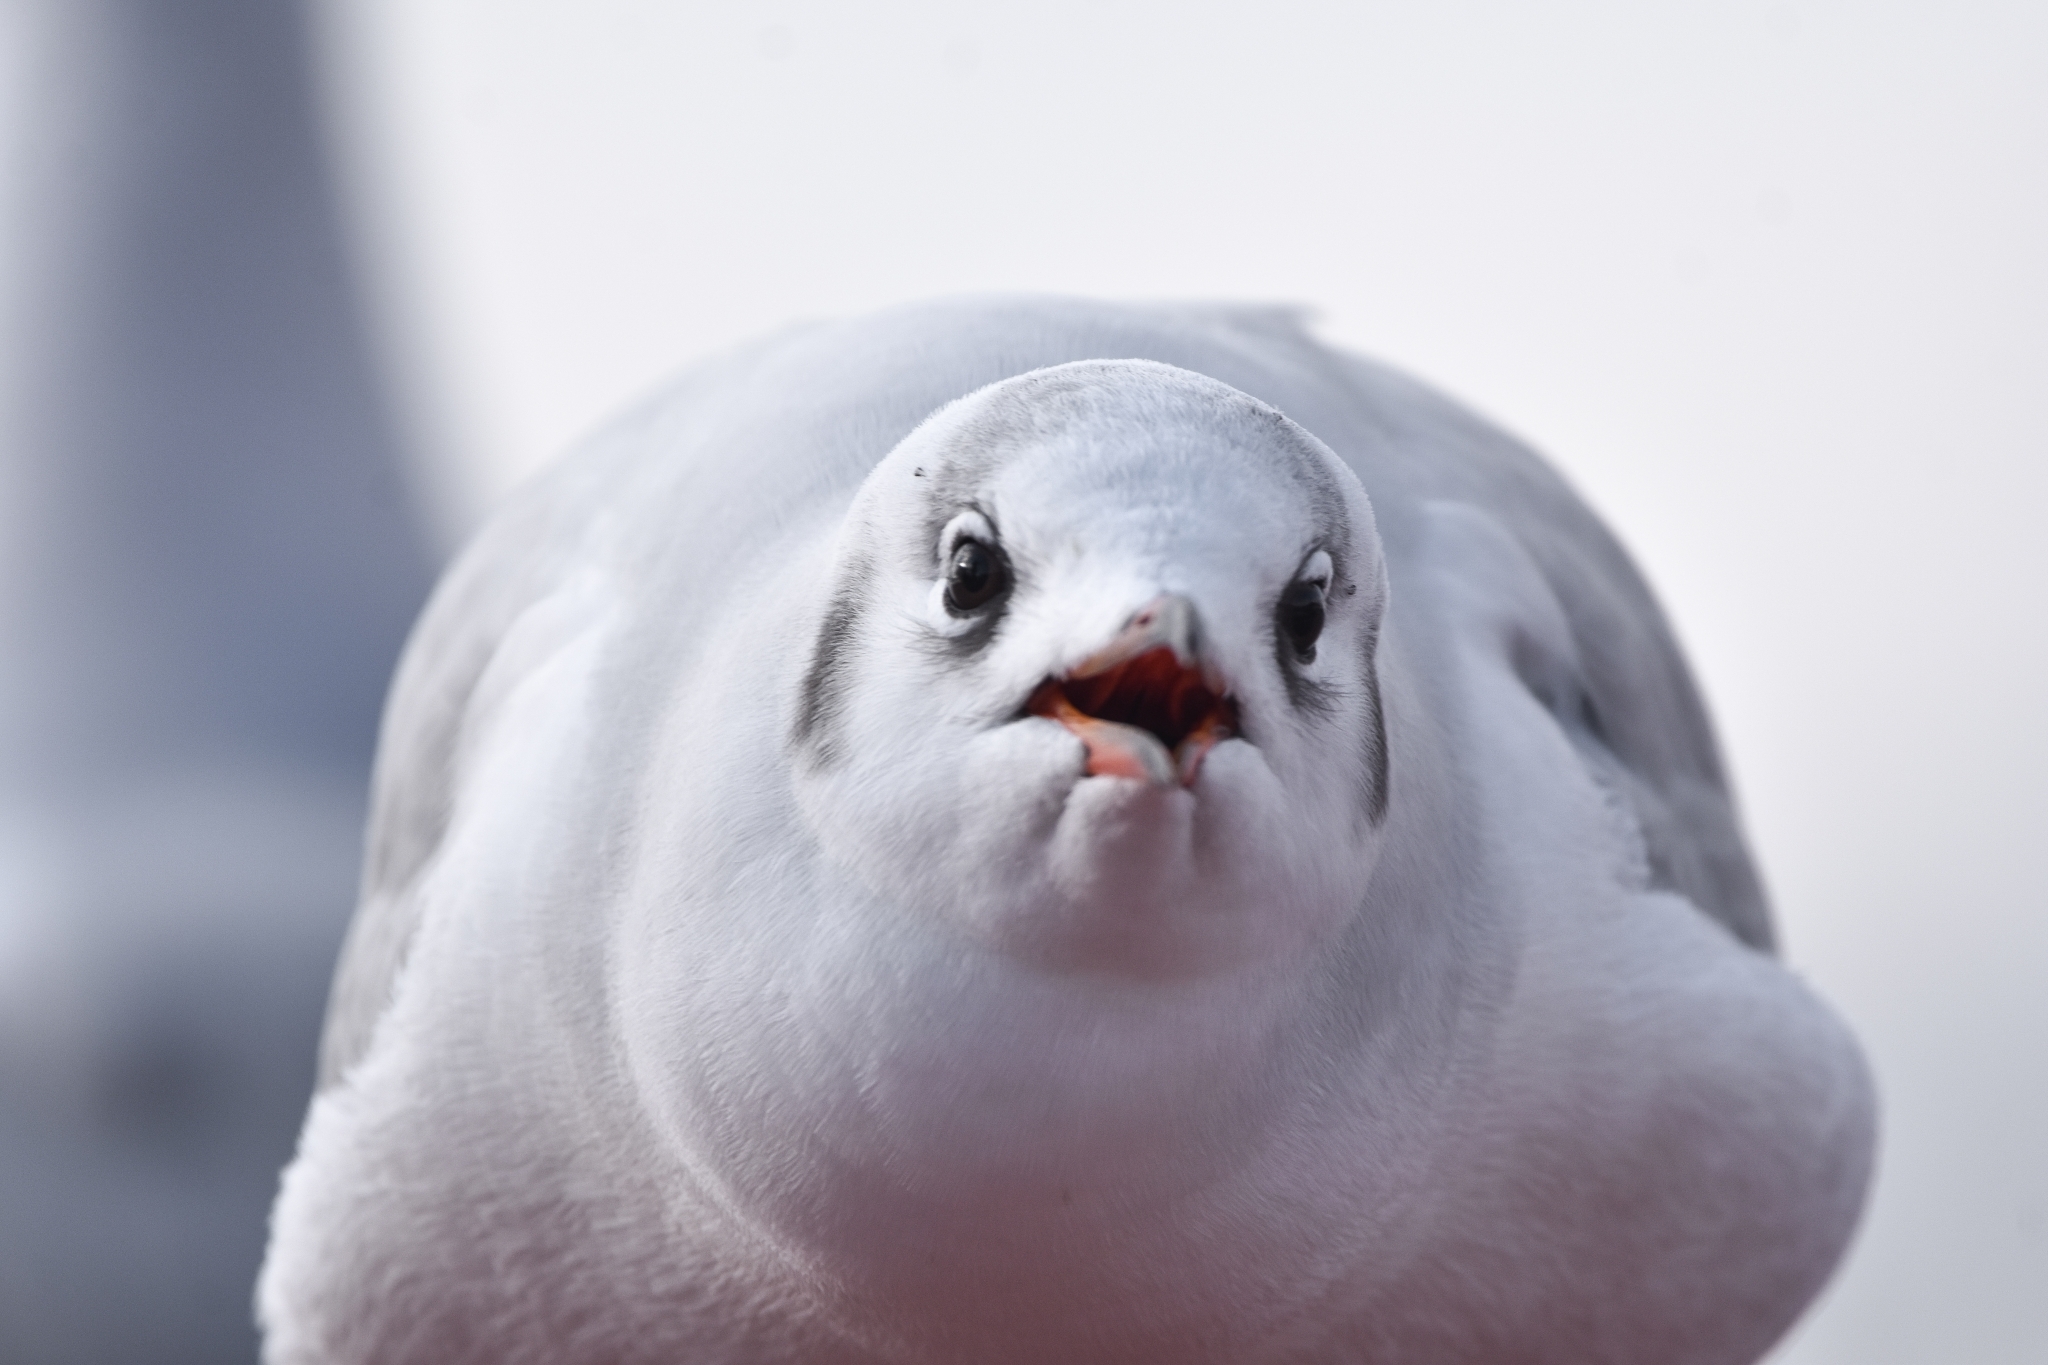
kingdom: Animalia
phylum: Chordata
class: Aves
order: Charadriiformes
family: Laridae
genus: Chroicocephalus
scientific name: Chroicocephalus ridibundus
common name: Black-headed gull
